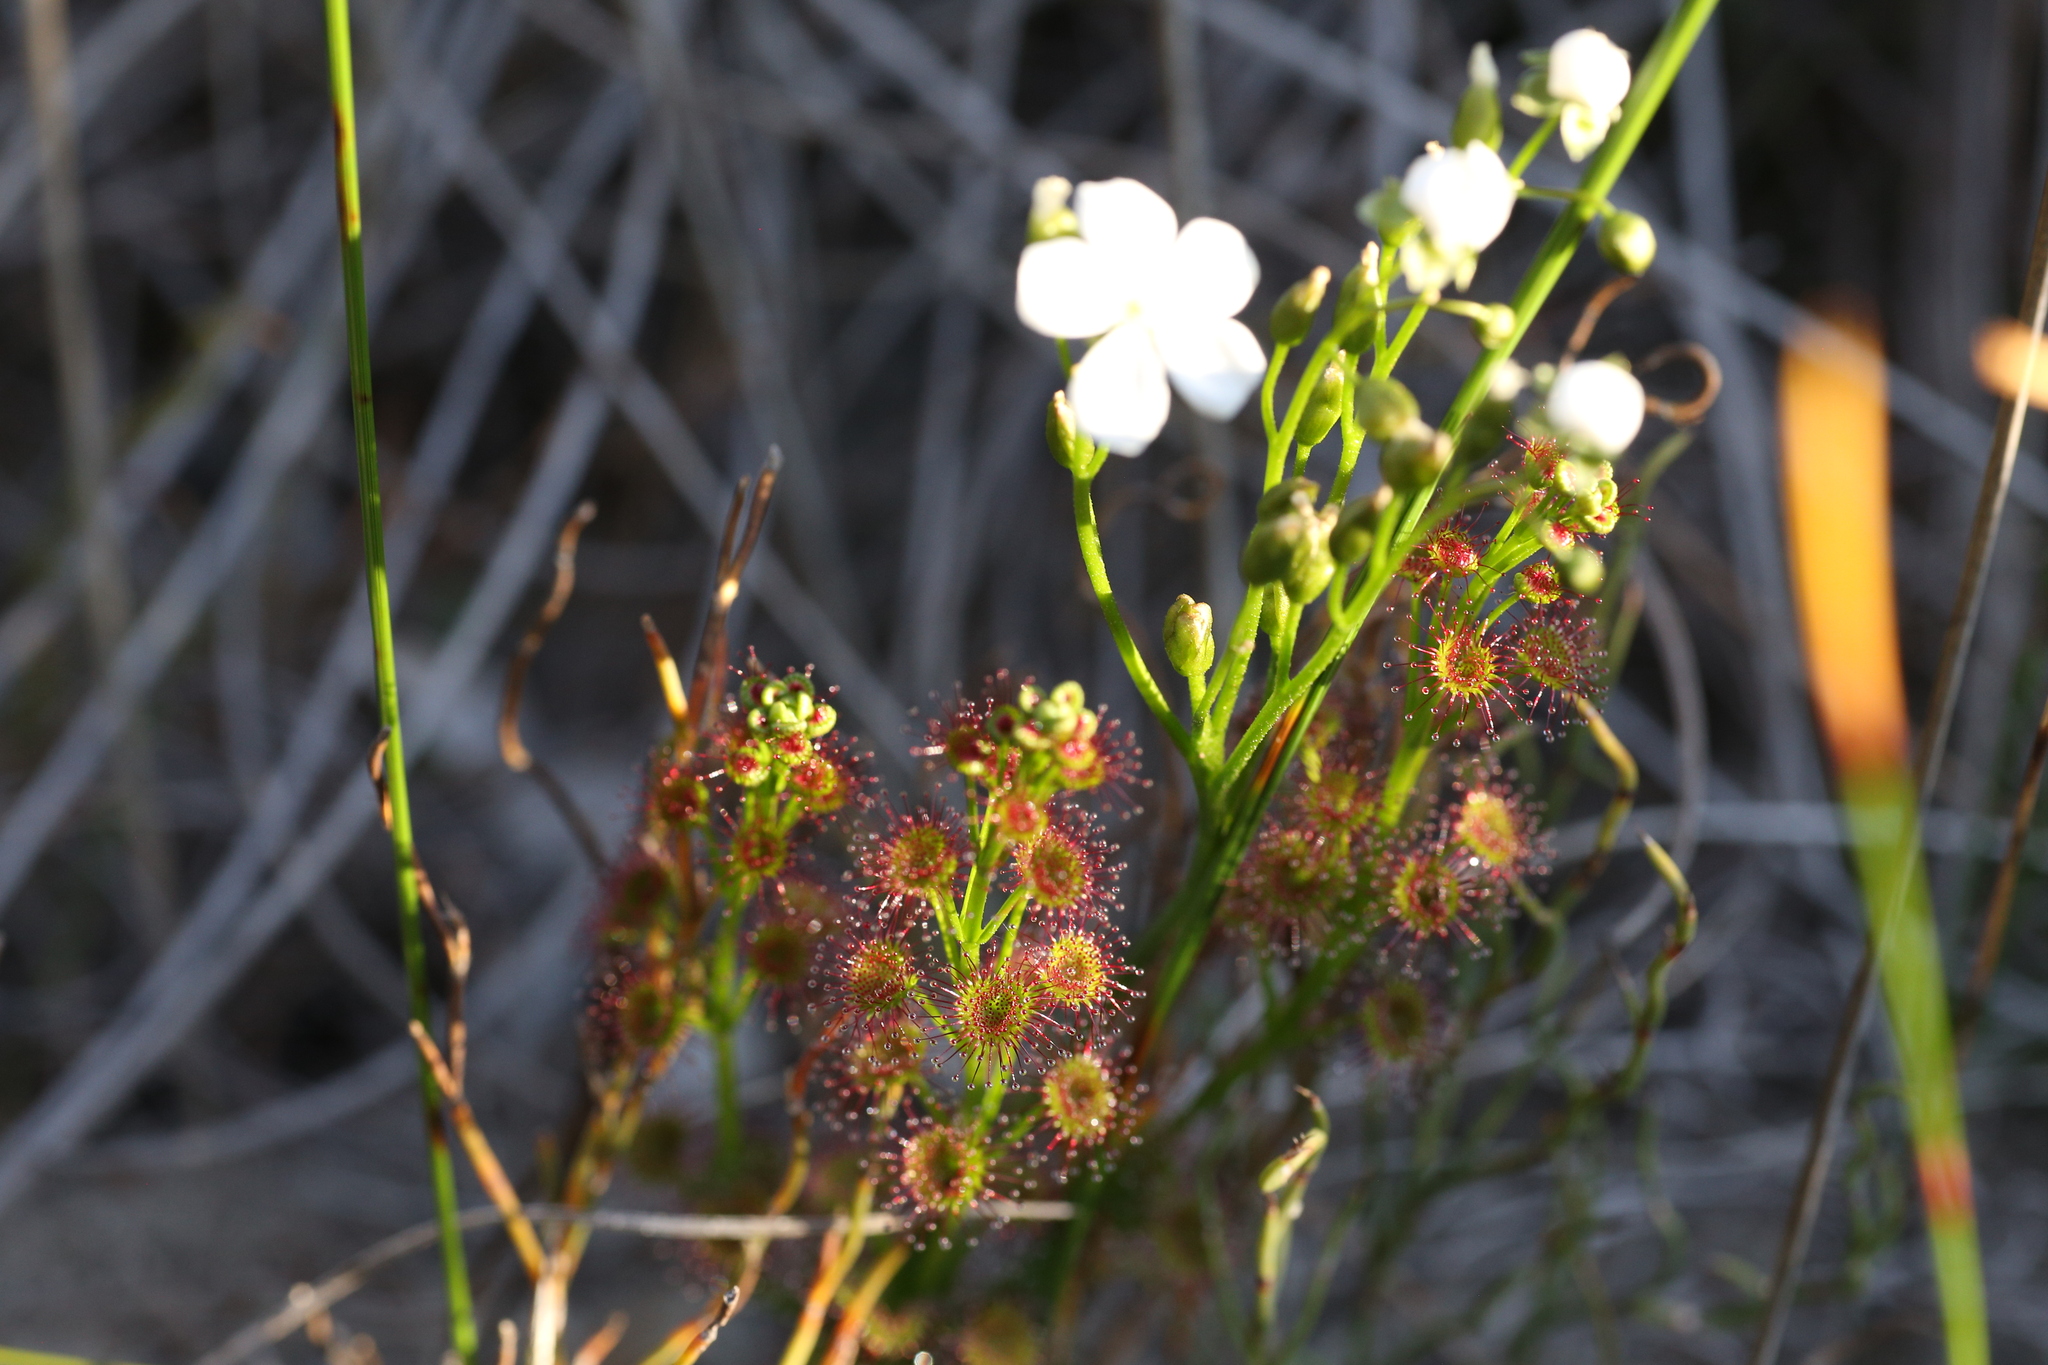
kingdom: Plantae
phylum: Tracheophyta
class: Magnoliopsida
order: Caryophyllales
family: Droseraceae
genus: Drosera
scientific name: Drosera stolonifera
